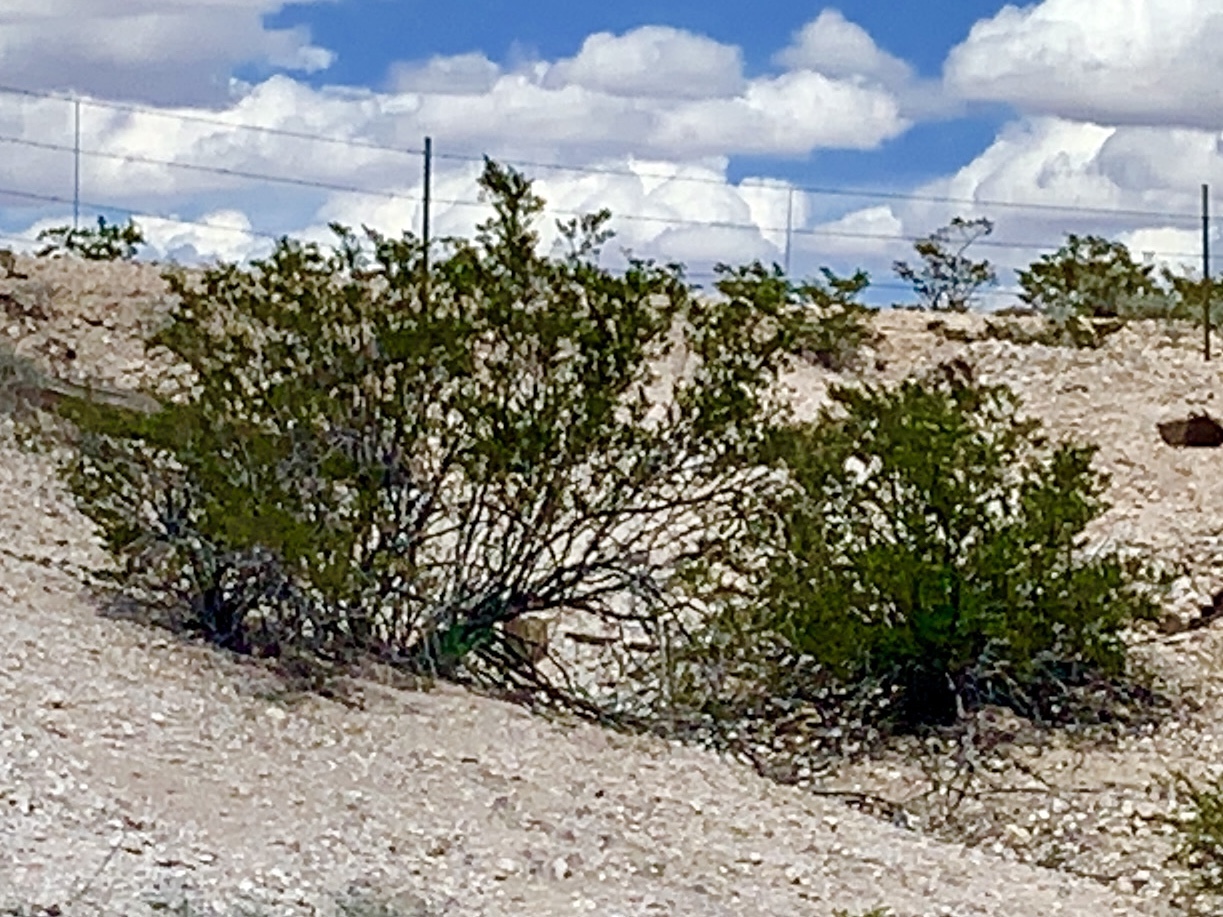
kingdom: Plantae
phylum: Tracheophyta
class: Magnoliopsida
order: Zygophyllales
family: Zygophyllaceae
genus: Larrea
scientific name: Larrea tridentata
